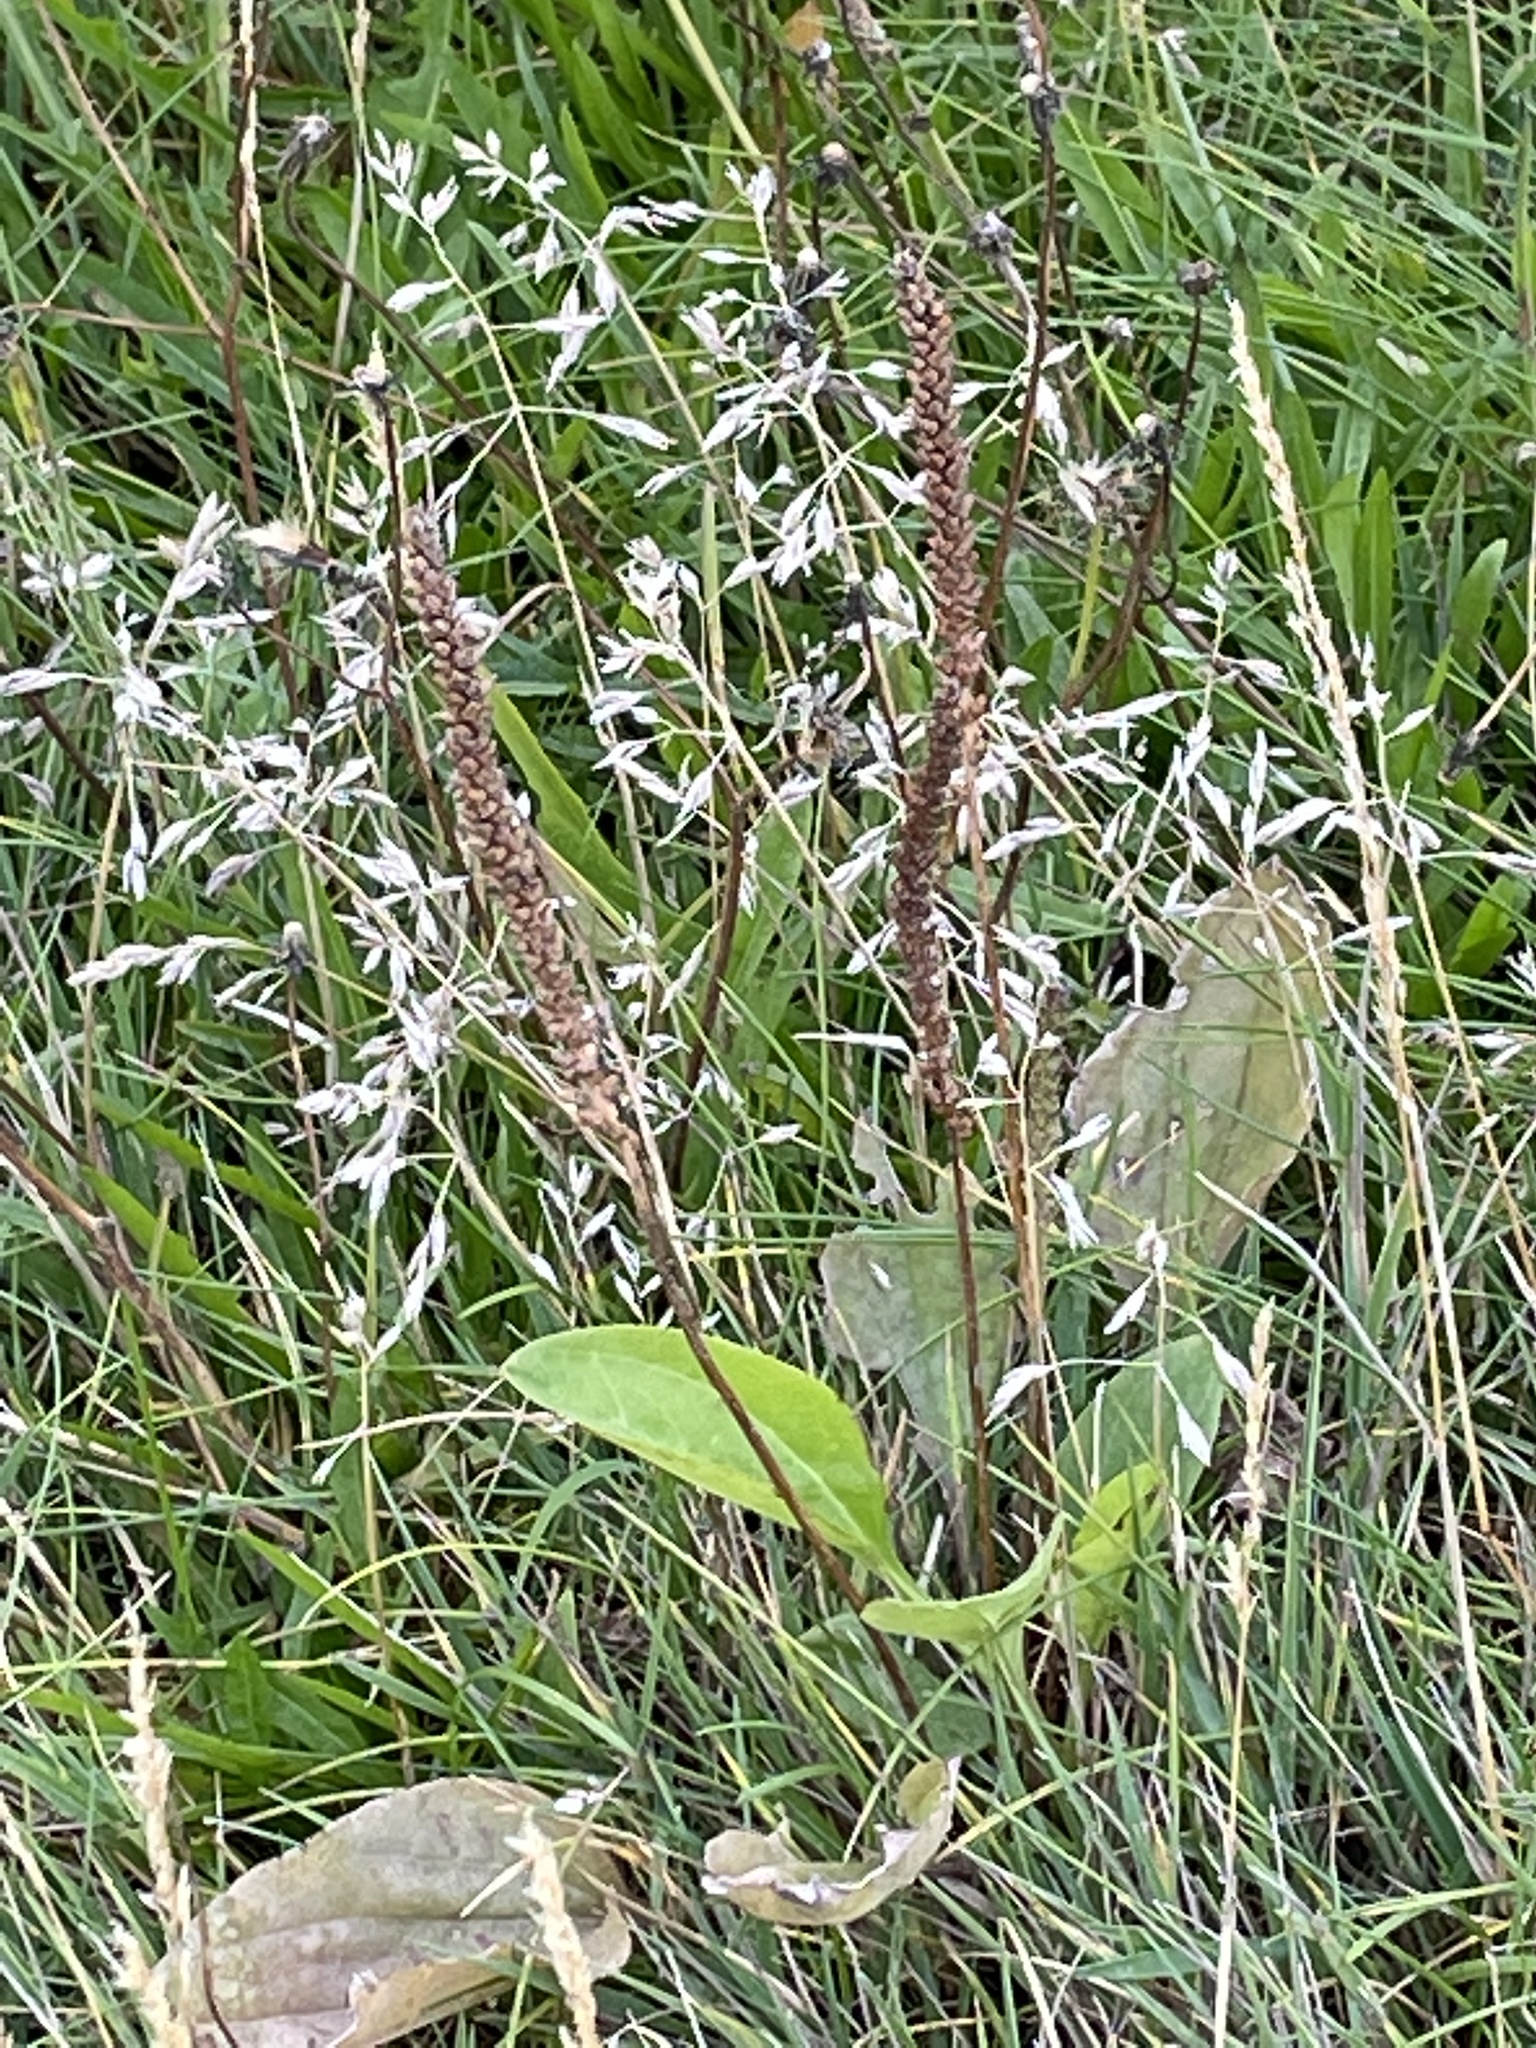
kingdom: Plantae
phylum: Tracheophyta
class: Magnoliopsida
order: Lamiales
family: Plantaginaceae
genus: Plantago
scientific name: Plantago major
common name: Common plantain
